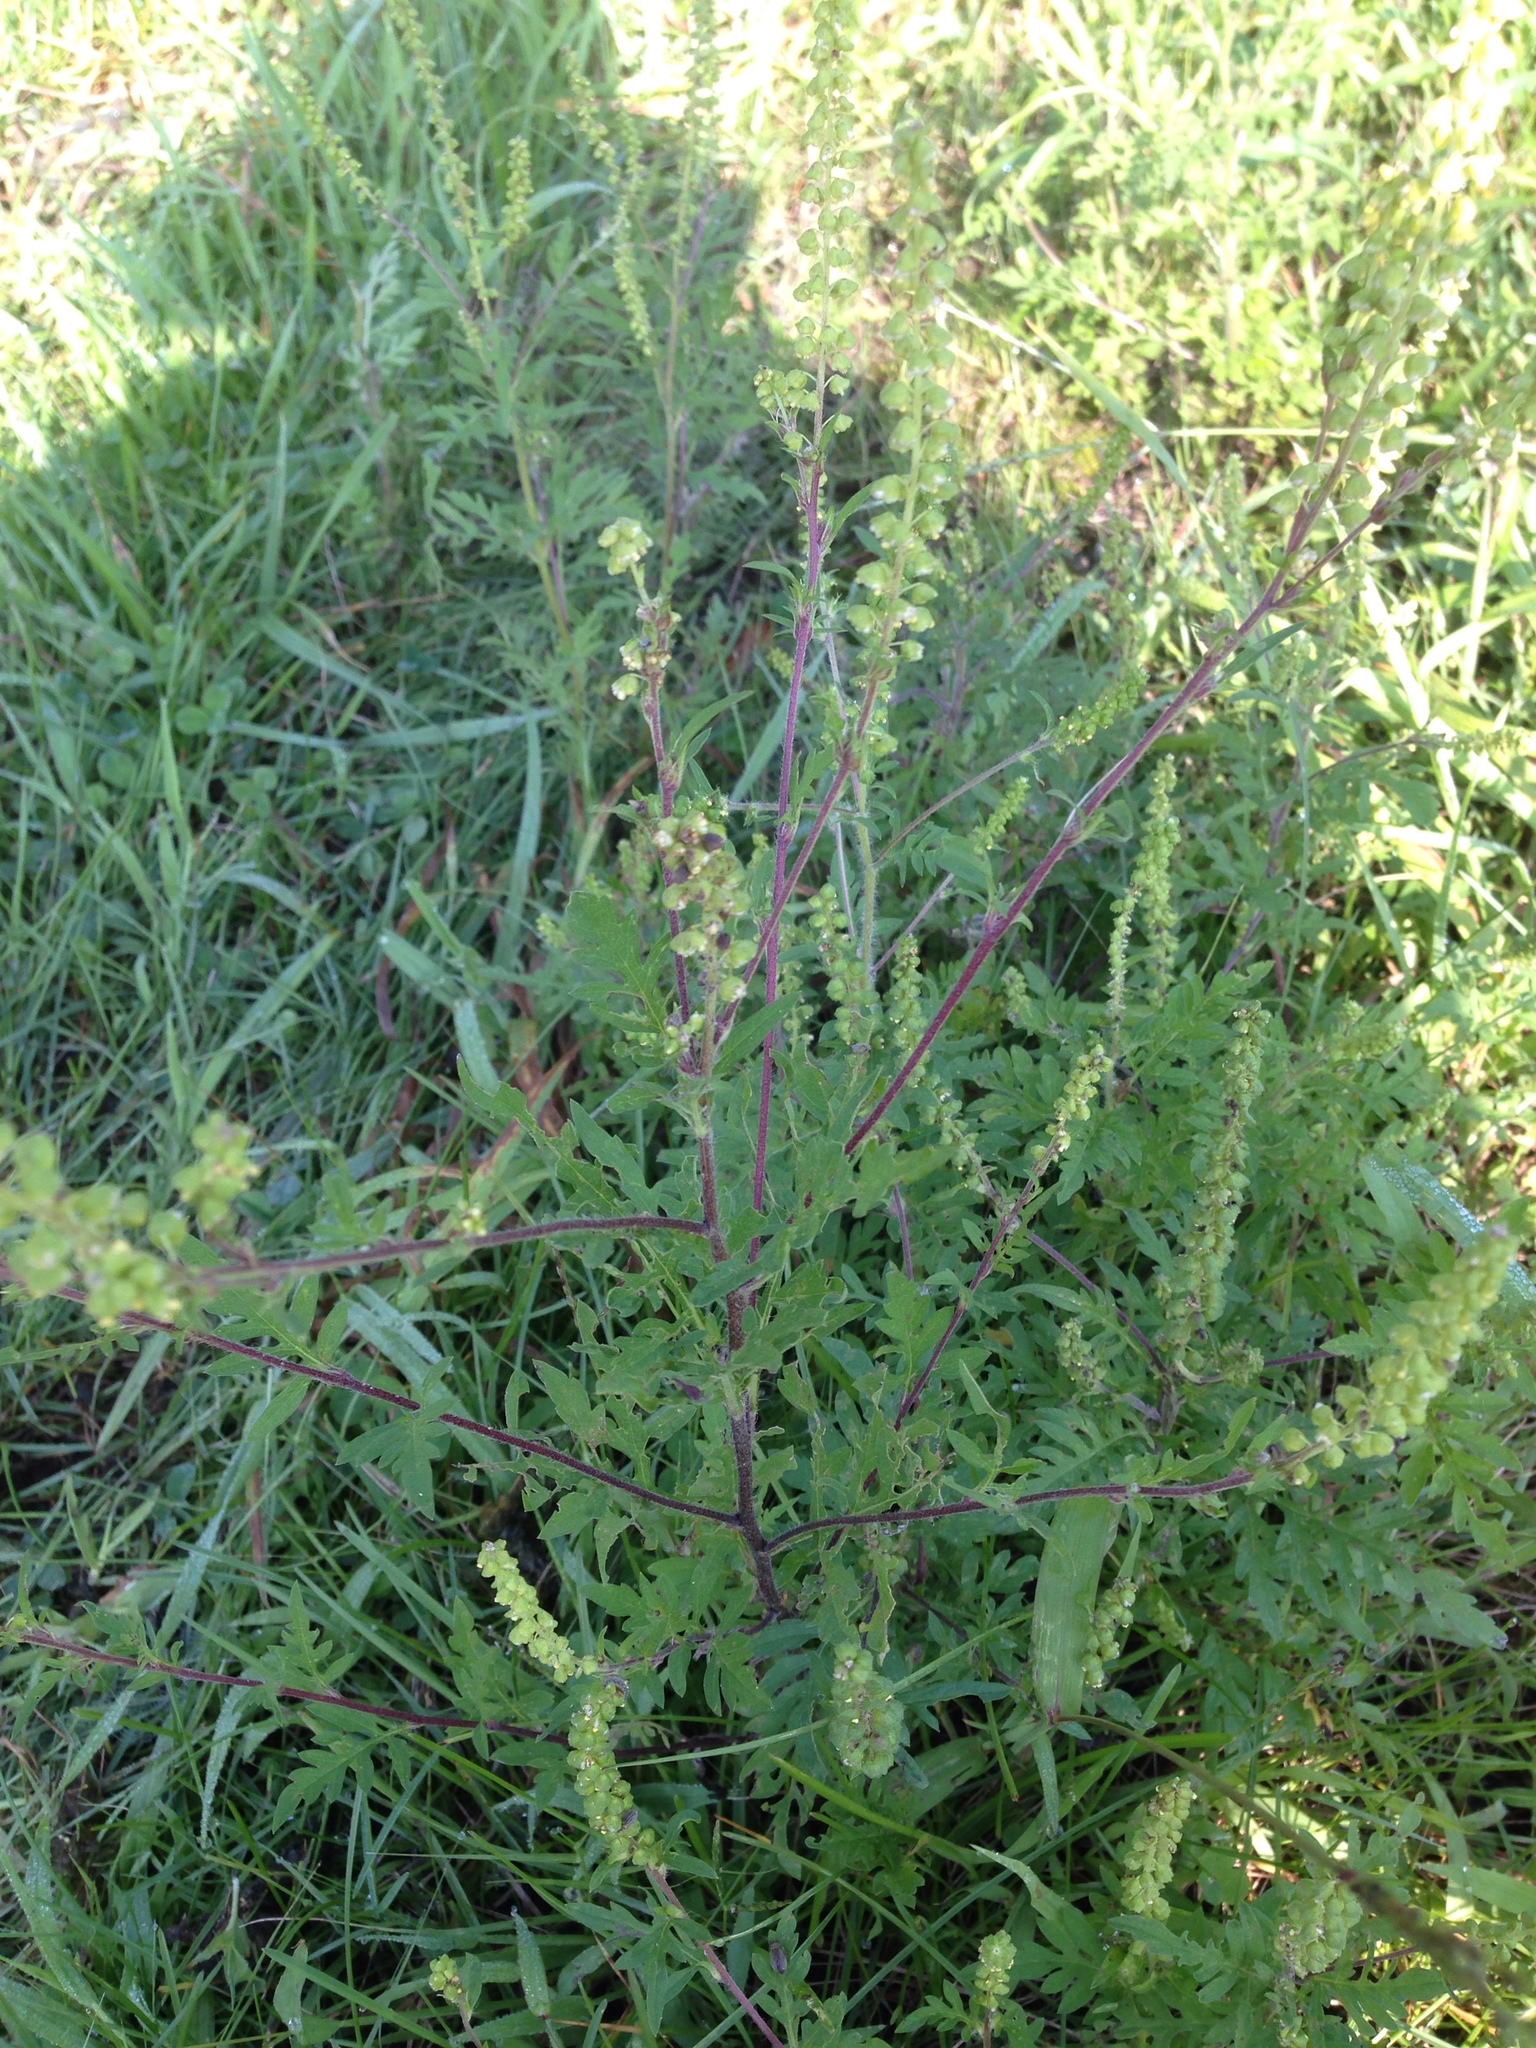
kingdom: Plantae
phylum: Tracheophyta
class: Magnoliopsida
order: Asterales
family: Asteraceae
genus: Ambrosia
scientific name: Ambrosia artemisiifolia
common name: Annual ragweed
